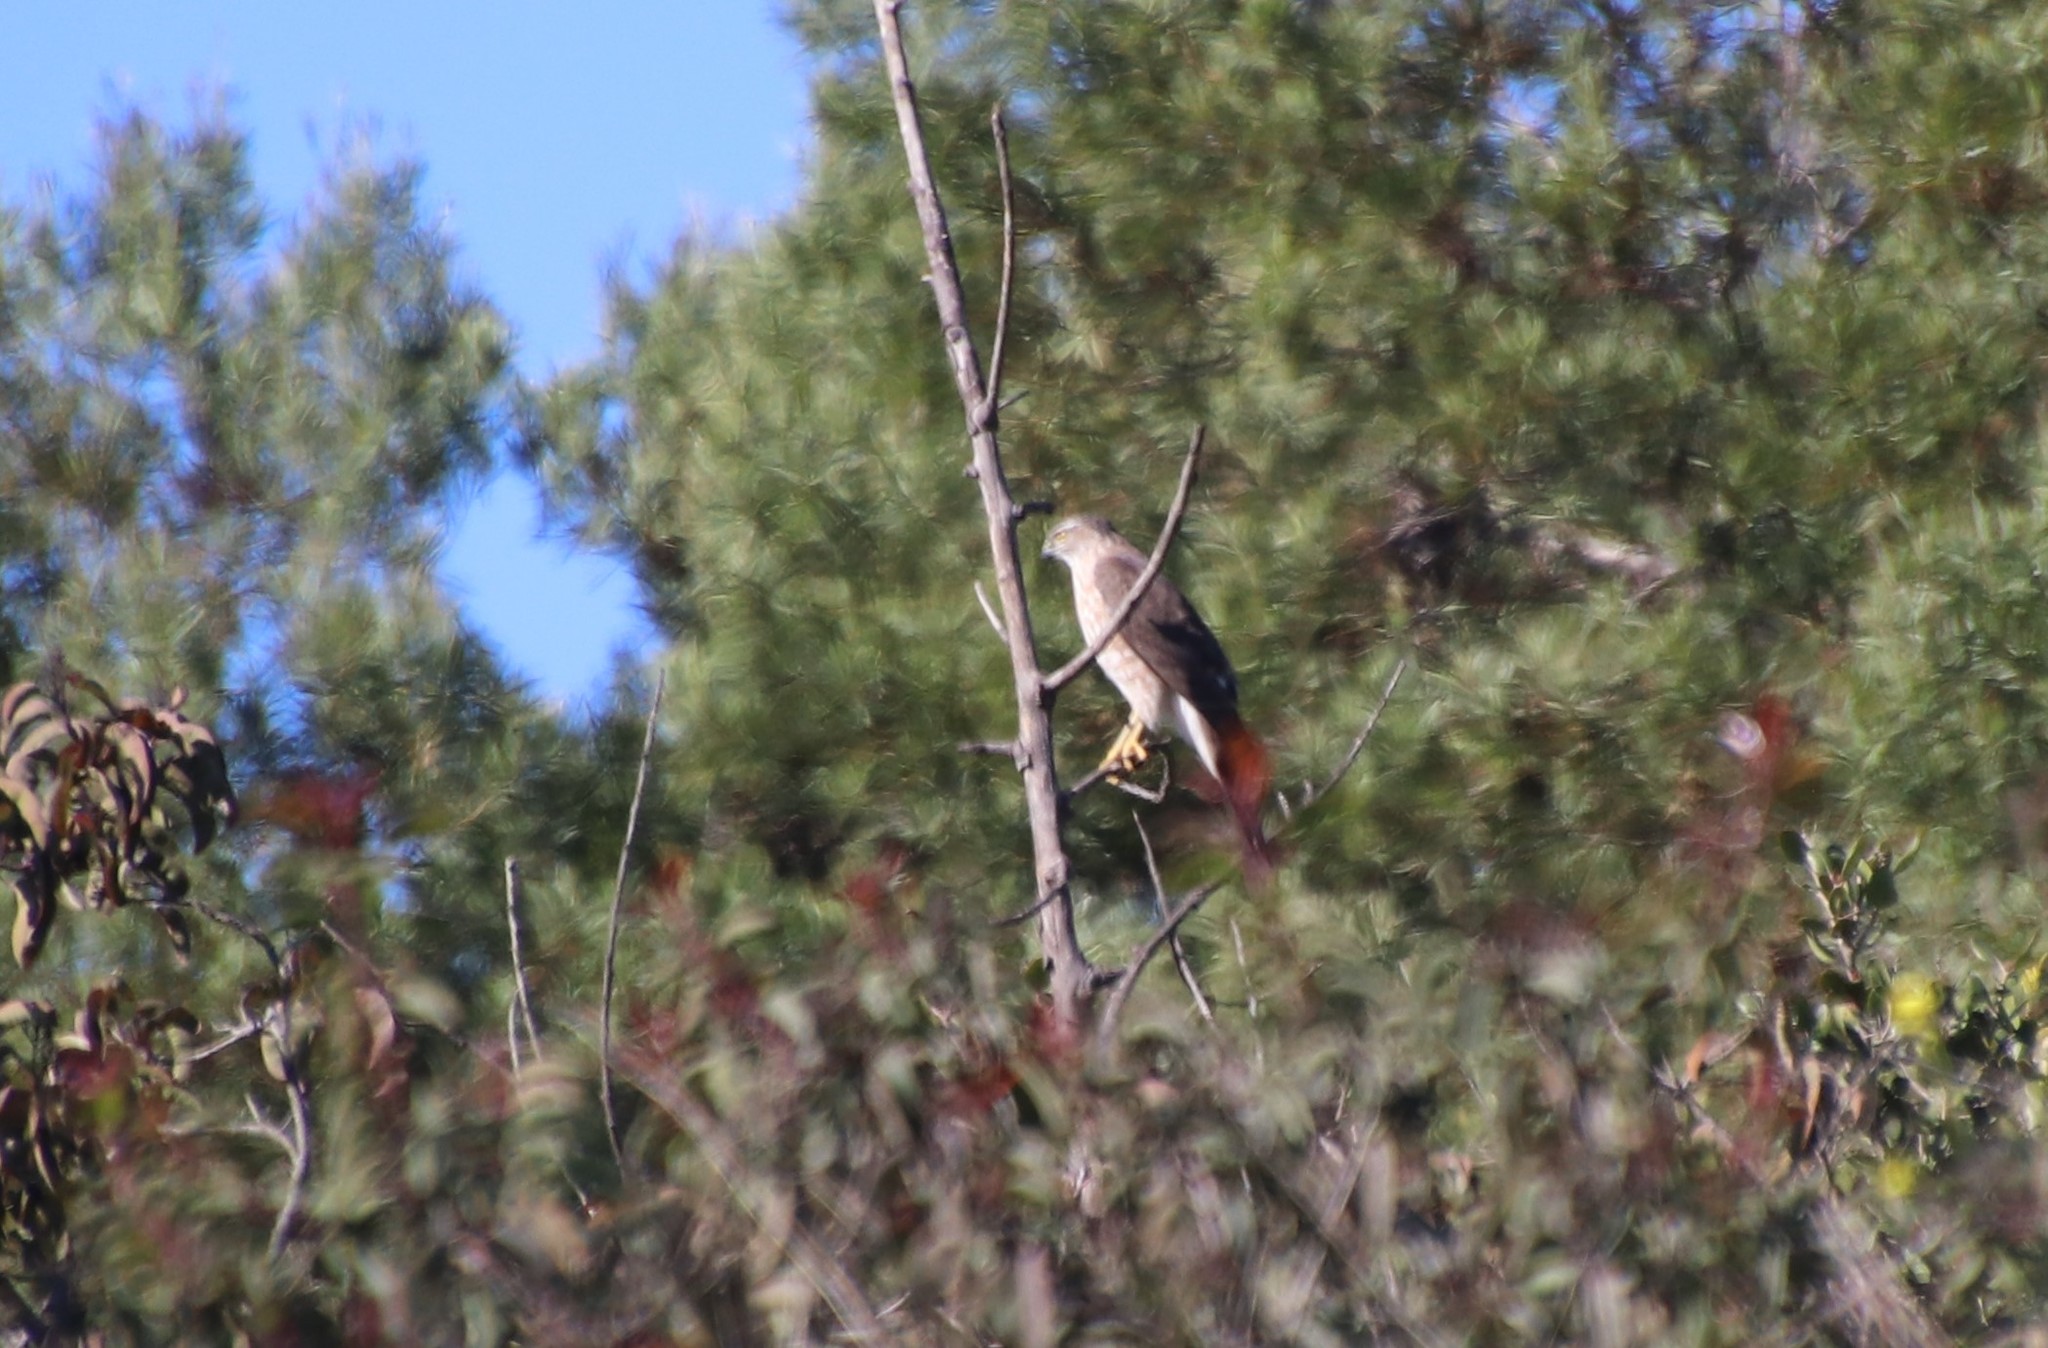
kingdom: Animalia
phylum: Chordata
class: Aves
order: Accipitriformes
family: Accipitridae
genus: Accipiter
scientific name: Accipiter cooperii
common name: Cooper's hawk
